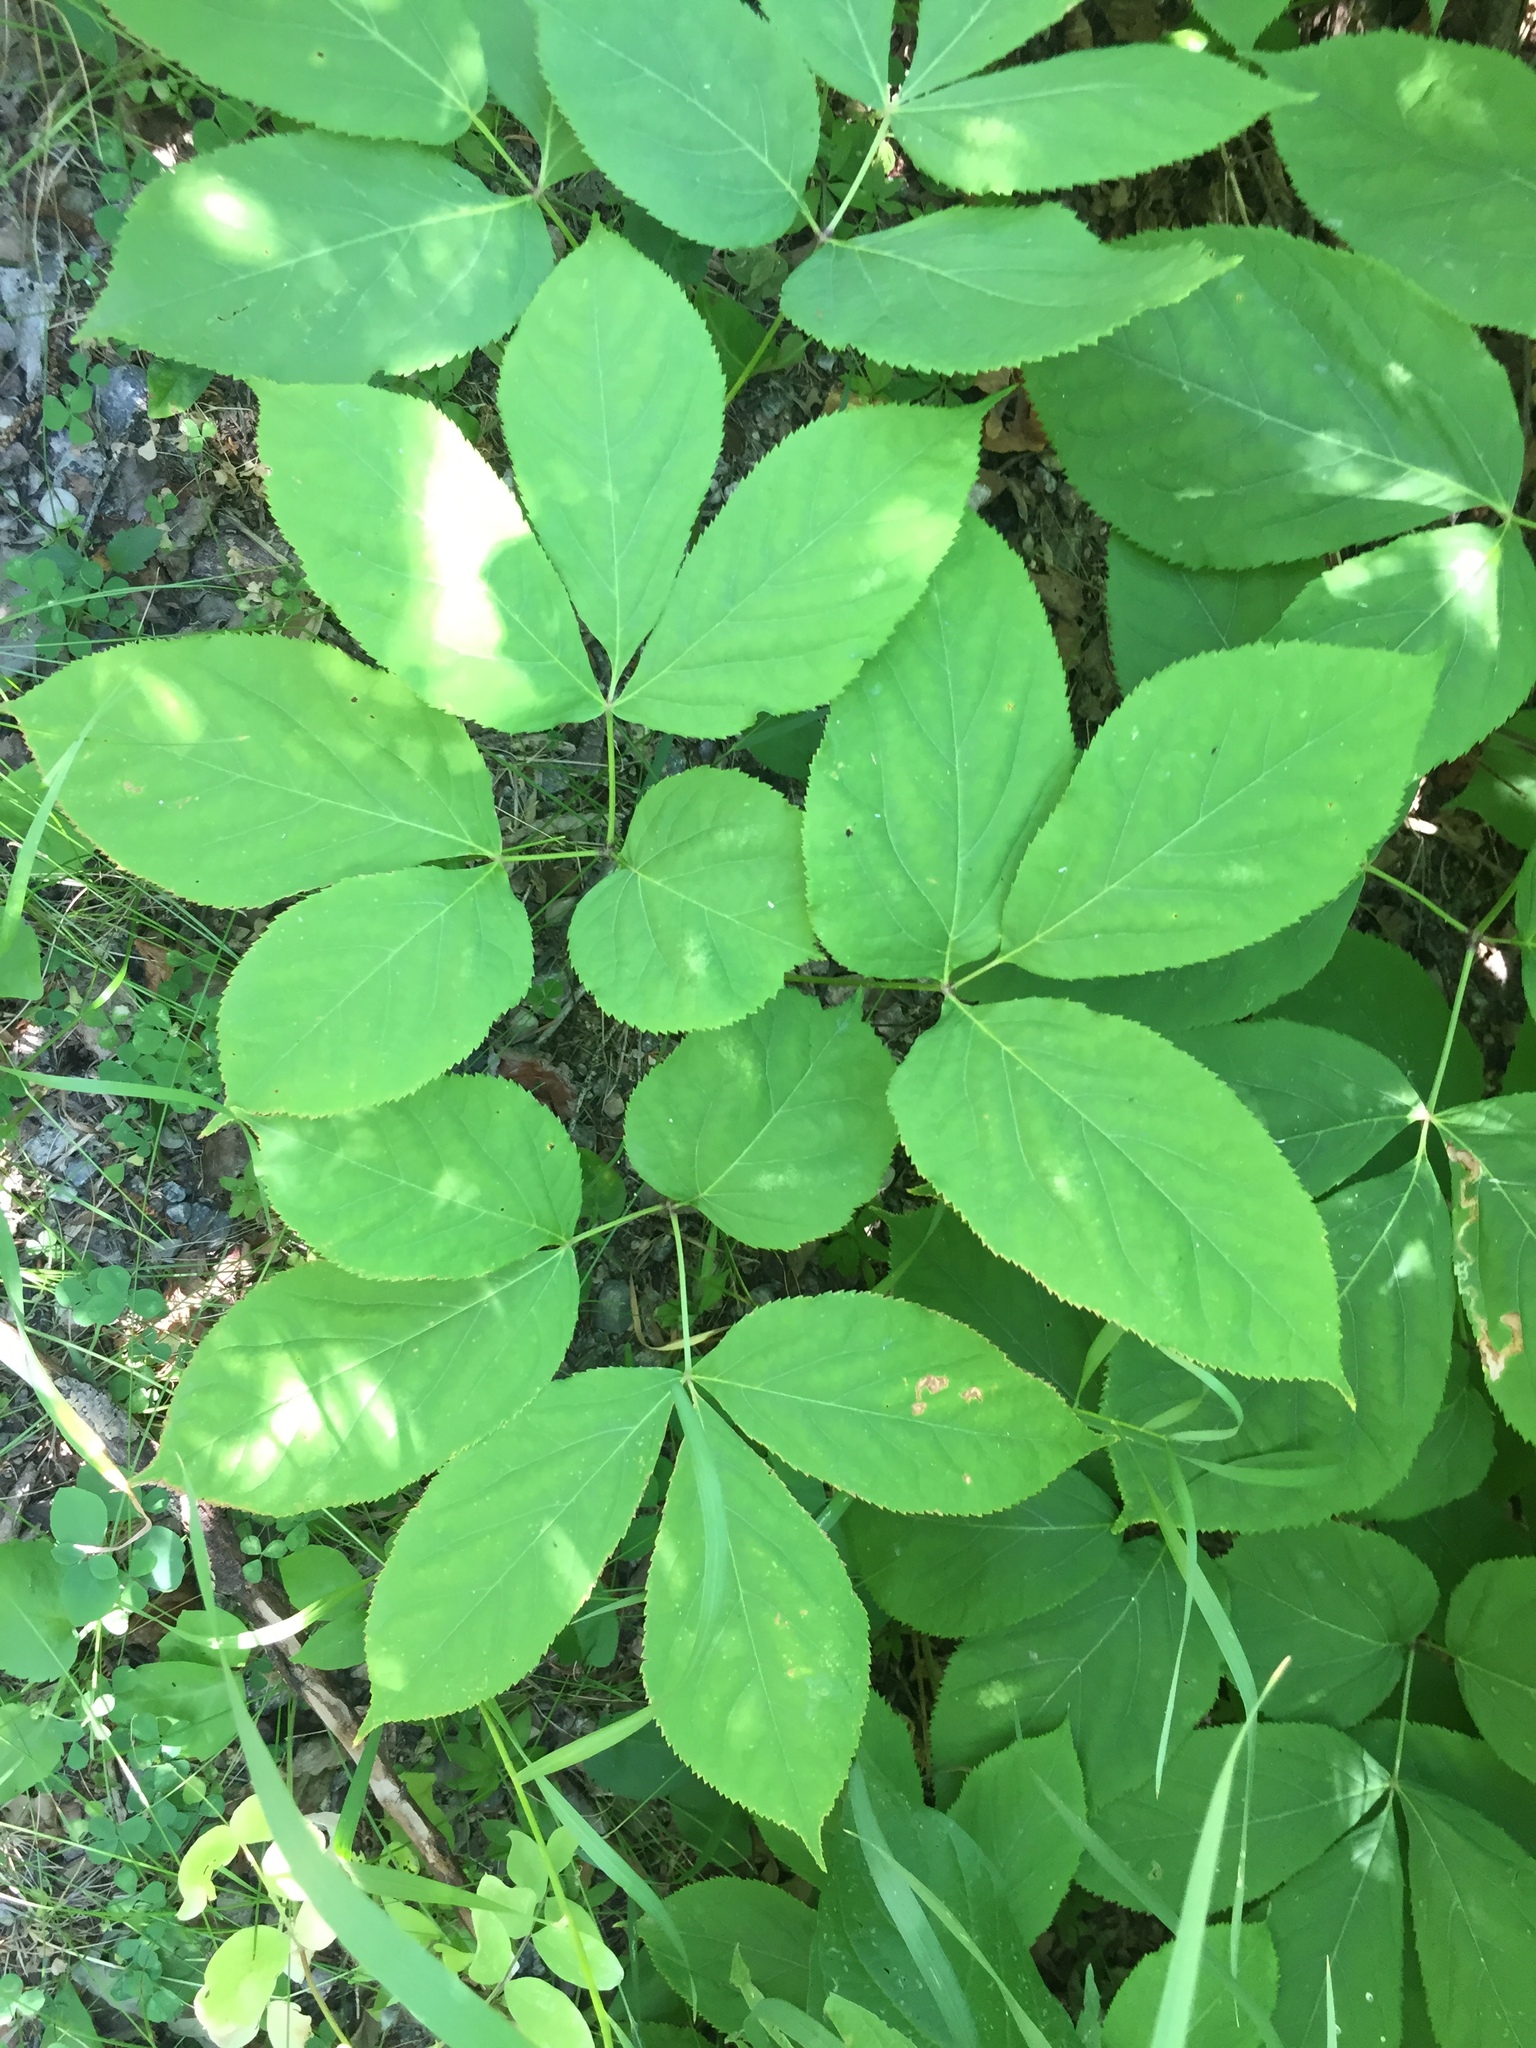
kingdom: Plantae
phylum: Tracheophyta
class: Magnoliopsida
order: Apiales
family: Araliaceae
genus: Aralia
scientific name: Aralia nudicaulis
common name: Wild sarsaparilla
